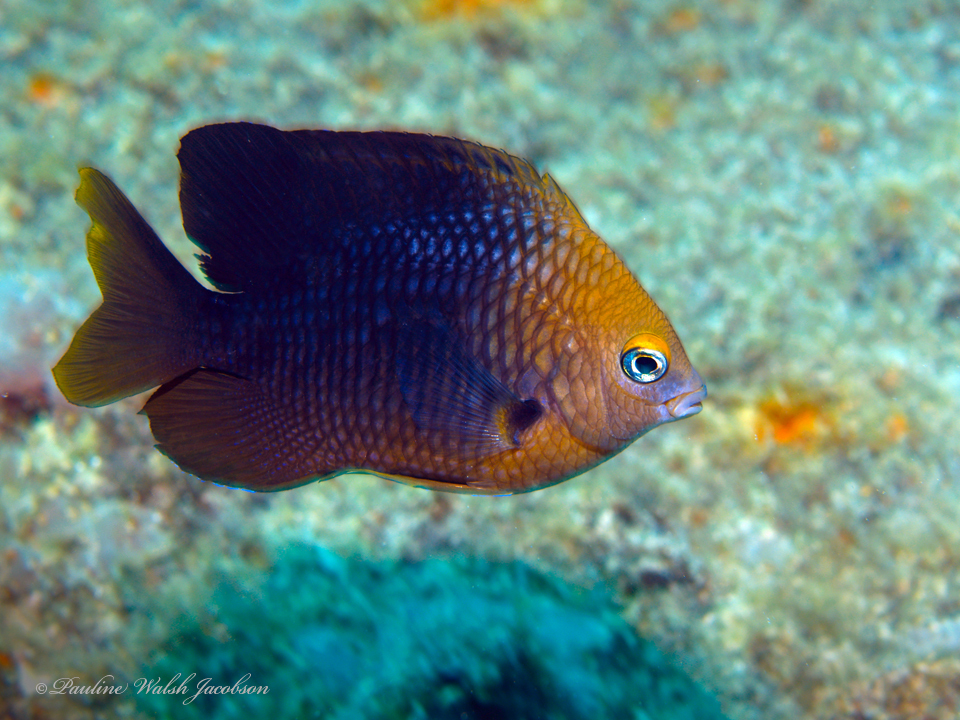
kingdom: Animalia
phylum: Chordata
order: Perciformes
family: Pomacentridae
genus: Stegastes
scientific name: Stegastes planifrons
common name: Threespot damselfish
